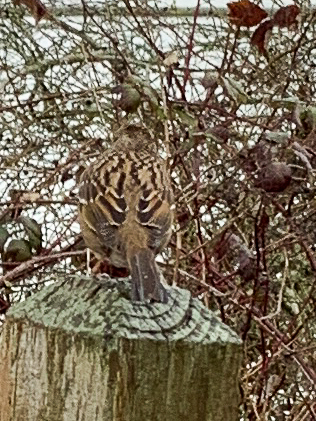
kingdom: Animalia
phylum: Chordata
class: Aves
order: Passeriformes
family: Passerellidae
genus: Zonotrichia
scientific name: Zonotrichia atricapilla
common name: Golden-crowned sparrow
